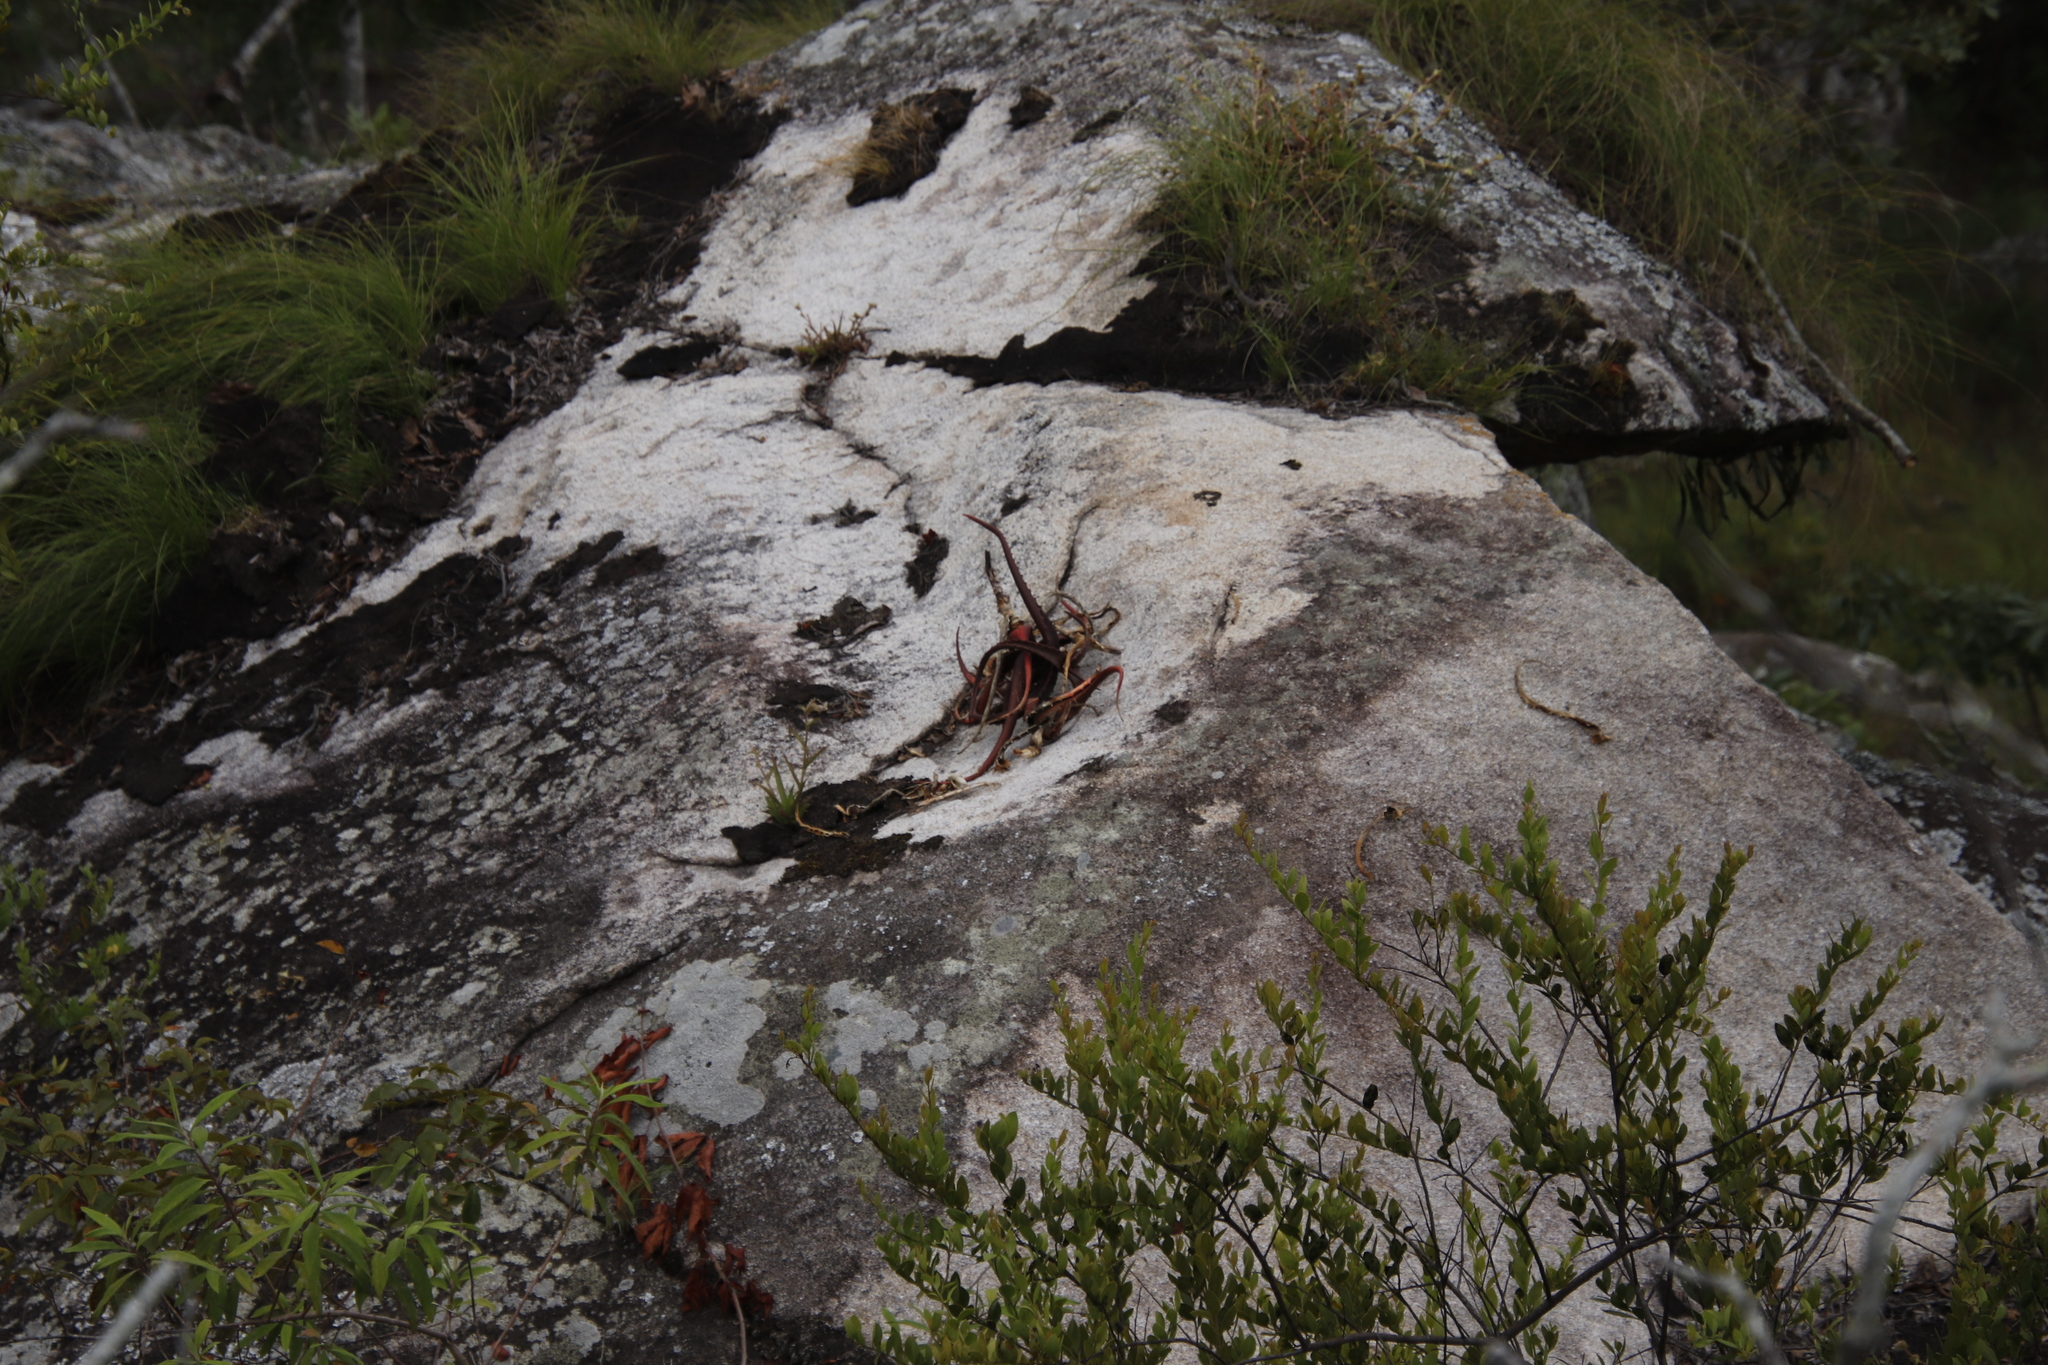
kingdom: Plantae
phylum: Tracheophyta
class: Liliopsida
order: Asparagales
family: Asphodelaceae
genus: Aloe
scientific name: Aloe cameronii
